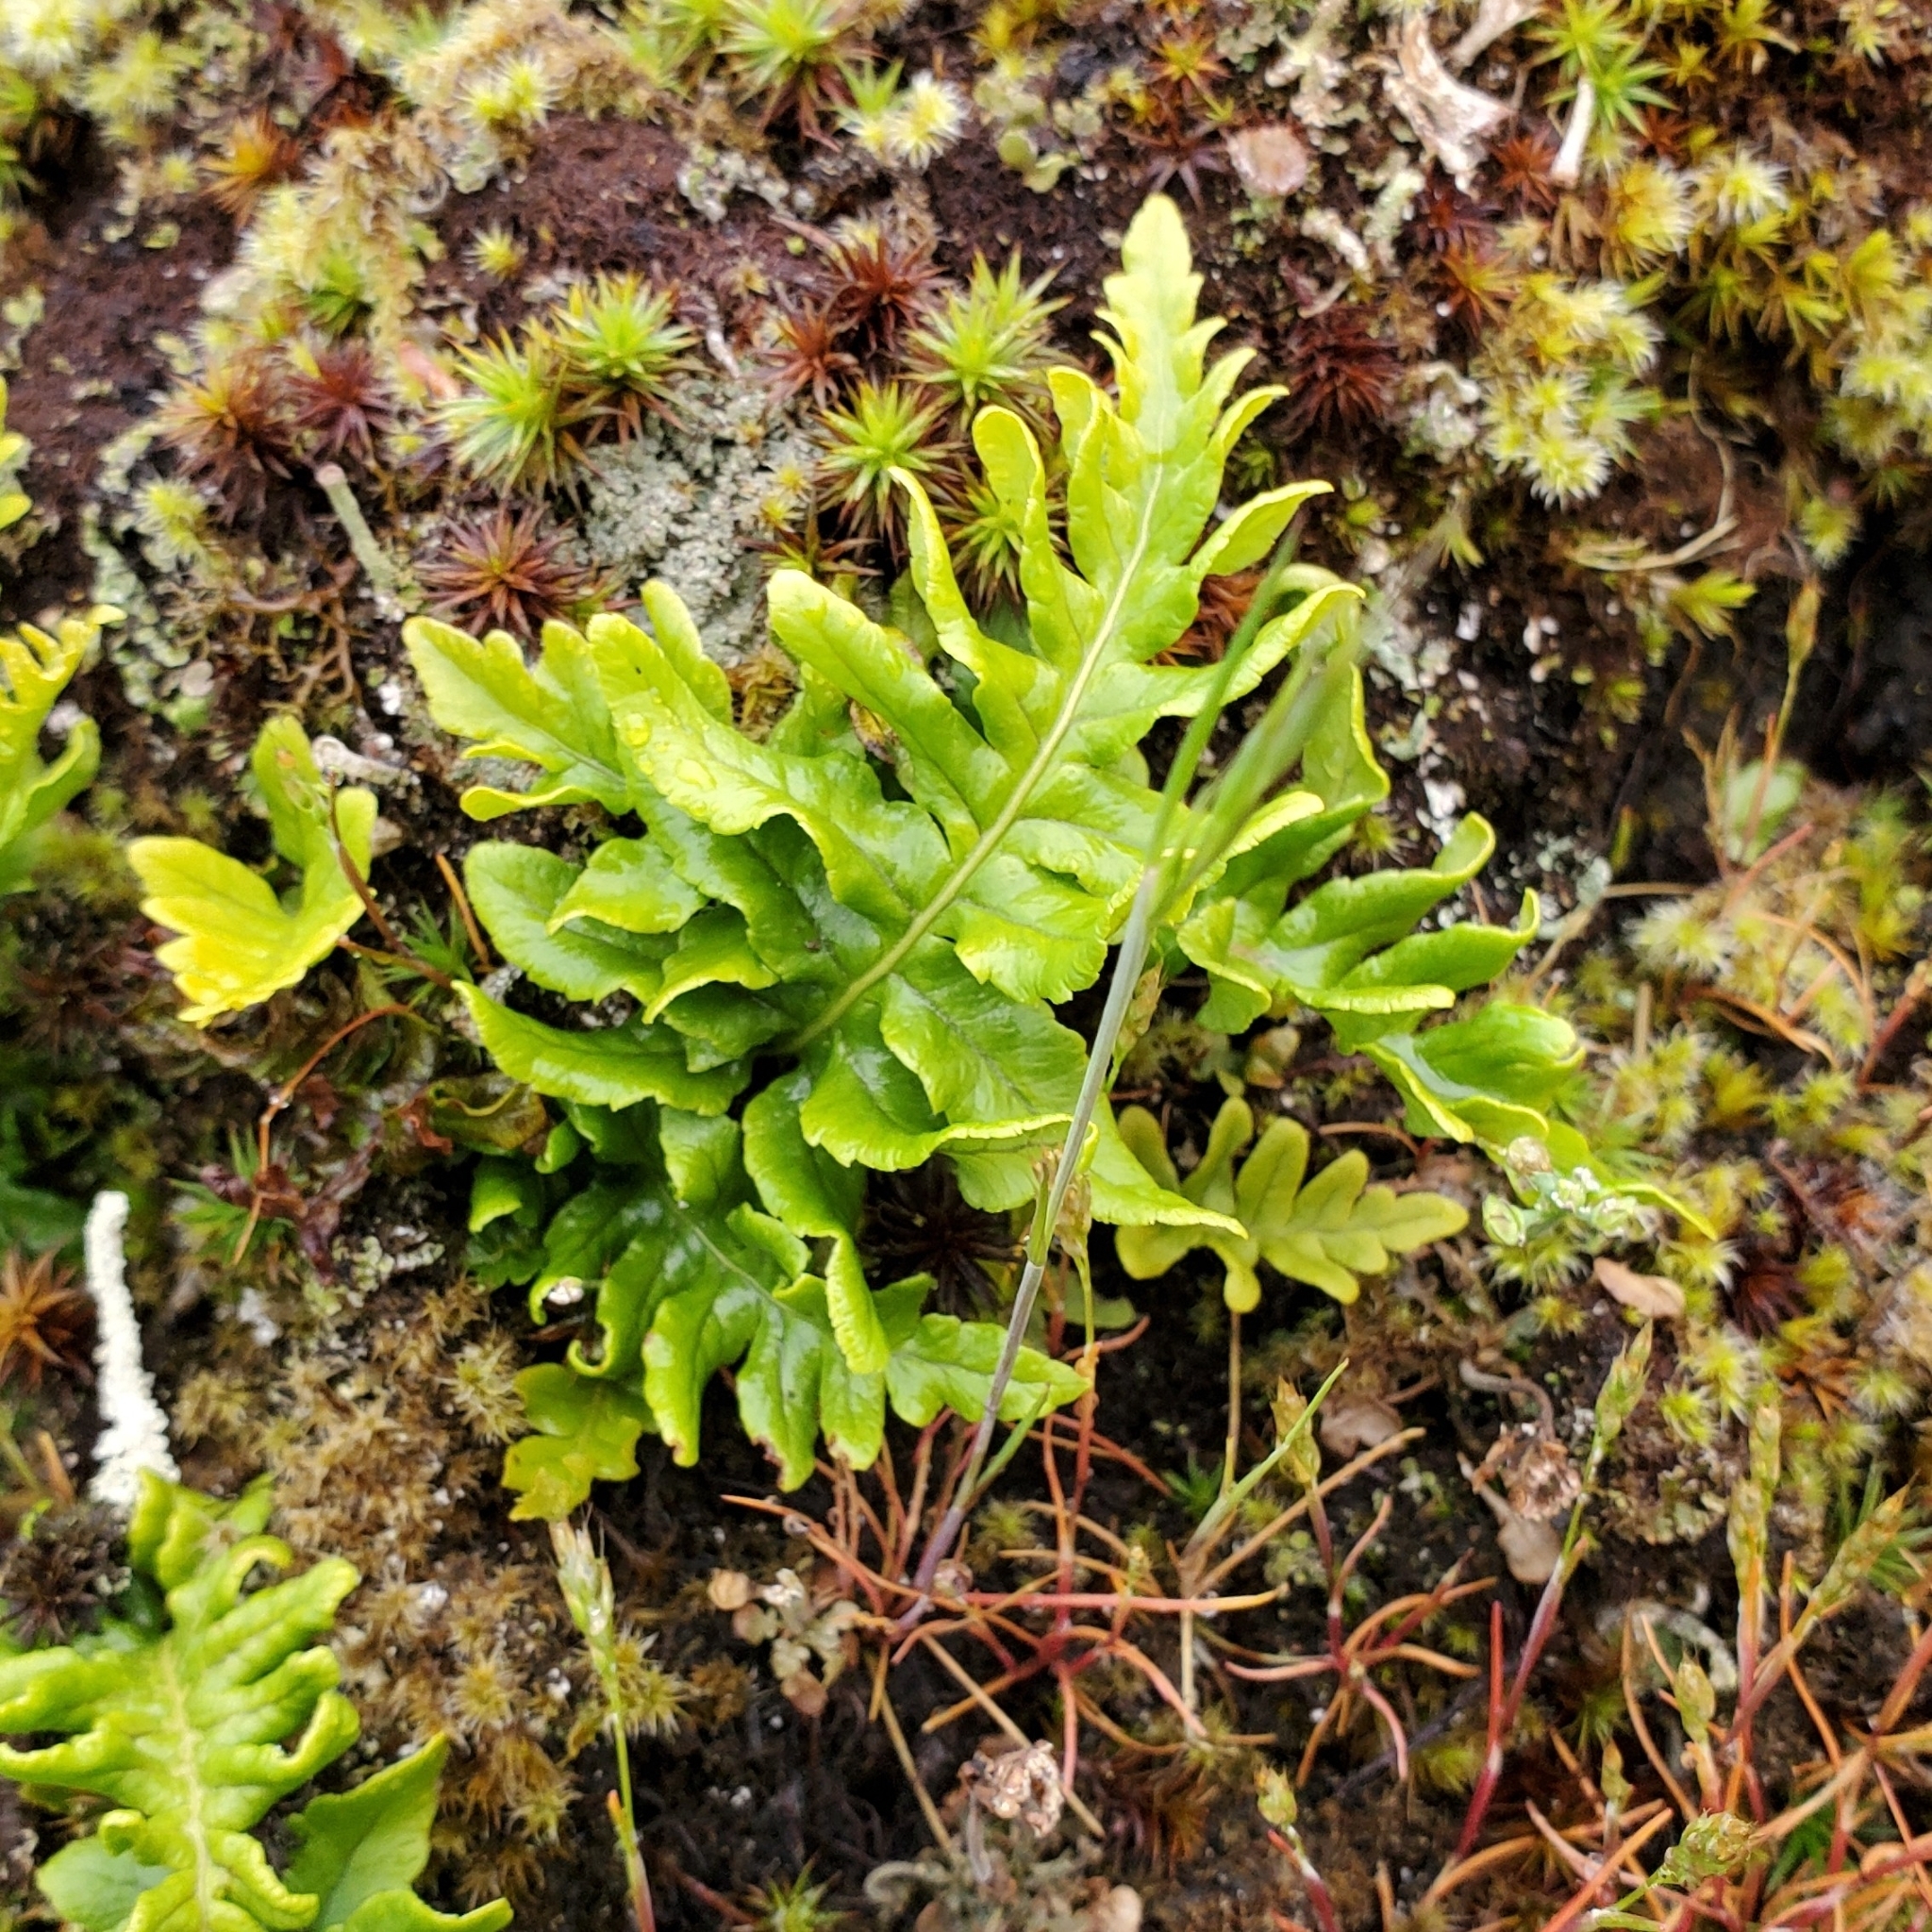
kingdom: Plantae
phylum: Tracheophyta
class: Polypodiopsida
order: Polypodiales
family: Polypodiaceae
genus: Polypodium
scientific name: Polypodium glycyrrhiza
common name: Licorice fern
